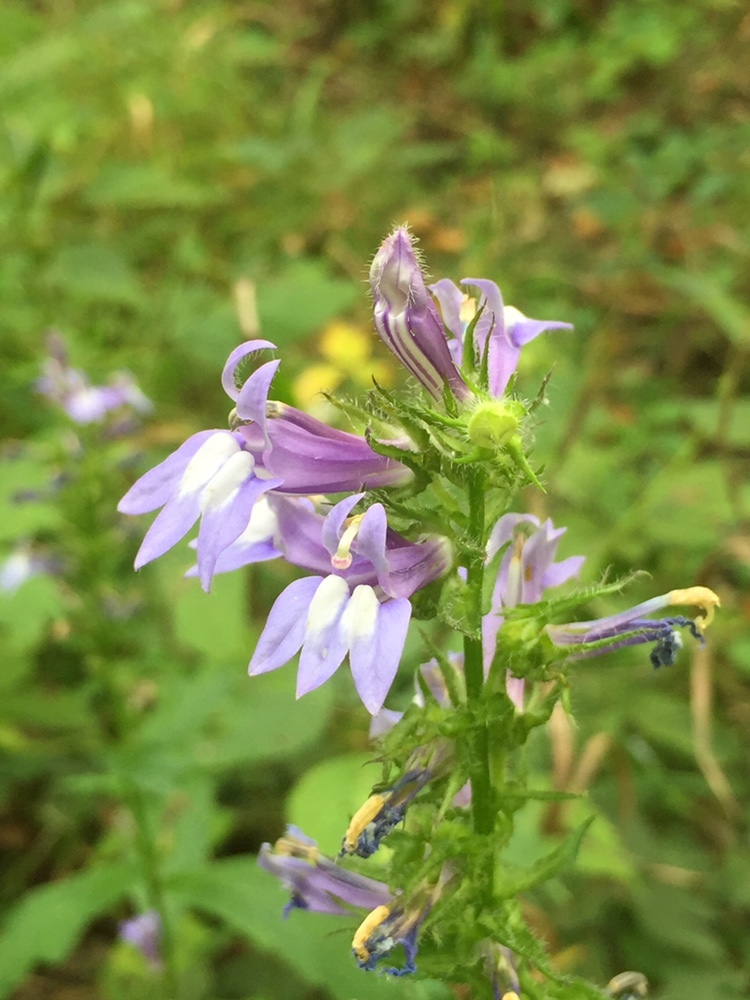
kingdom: Plantae
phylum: Tracheophyta
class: Magnoliopsida
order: Asterales
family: Campanulaceae
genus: Lobelia
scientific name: Lobelia siphilitica
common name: Great lobelia
